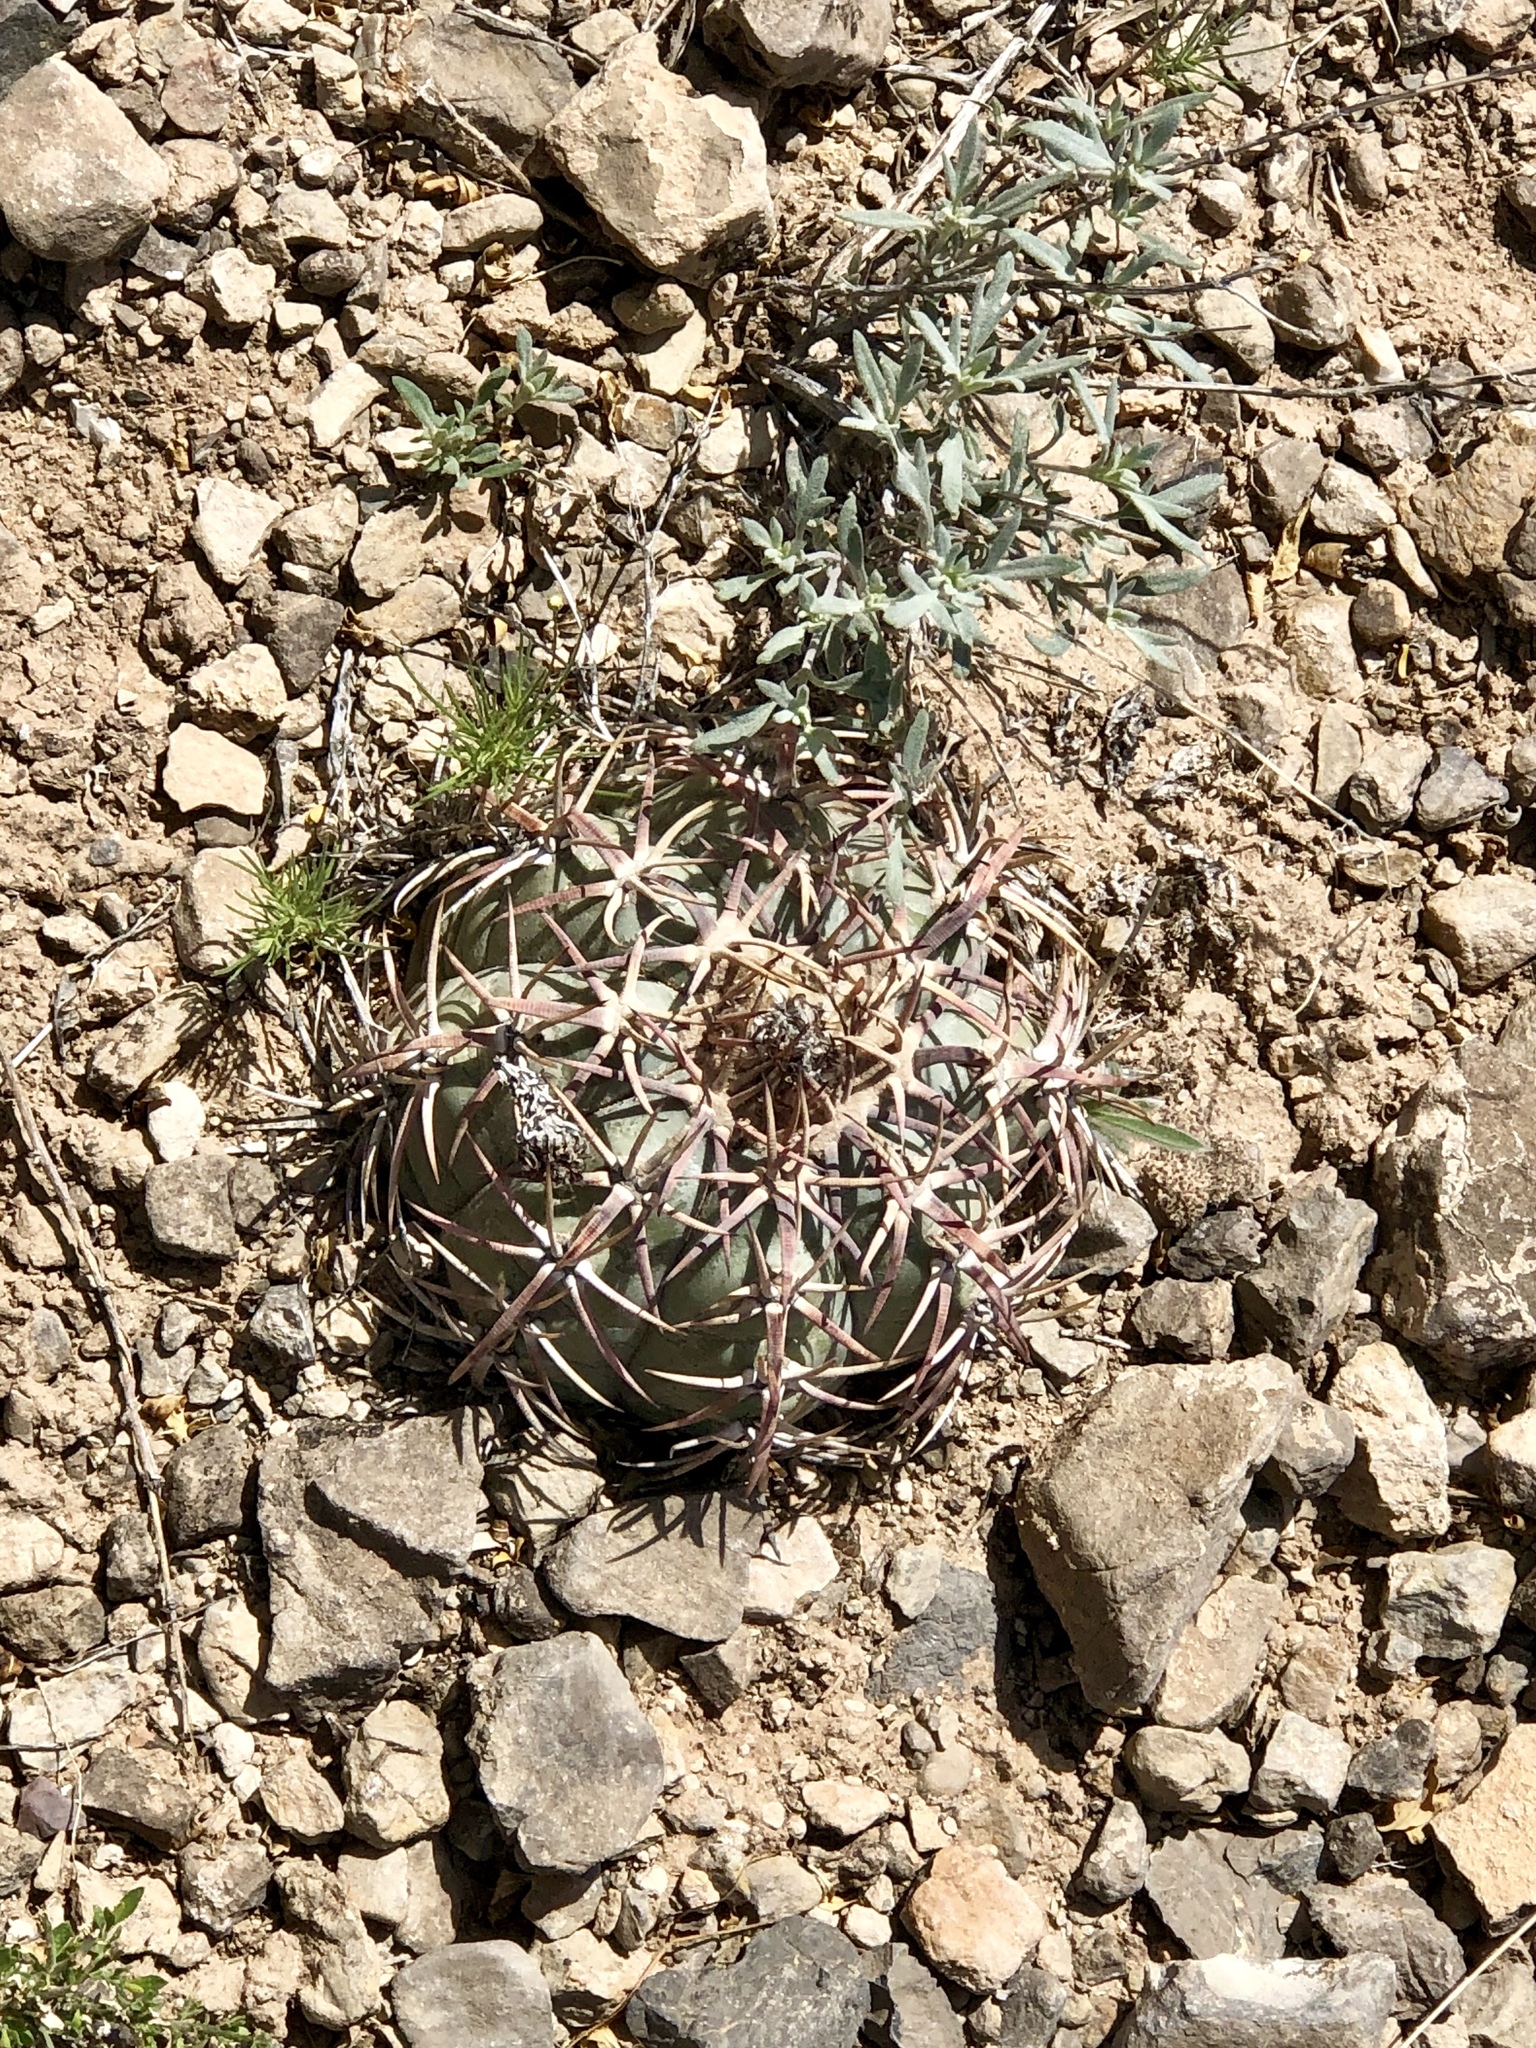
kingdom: Plantae
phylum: Tracheophyta
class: Magnoliopsida
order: Caryophyllales
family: Cactaceae
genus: Echinocactus
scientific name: Echinocactus horizonthalonius
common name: Devilshead
